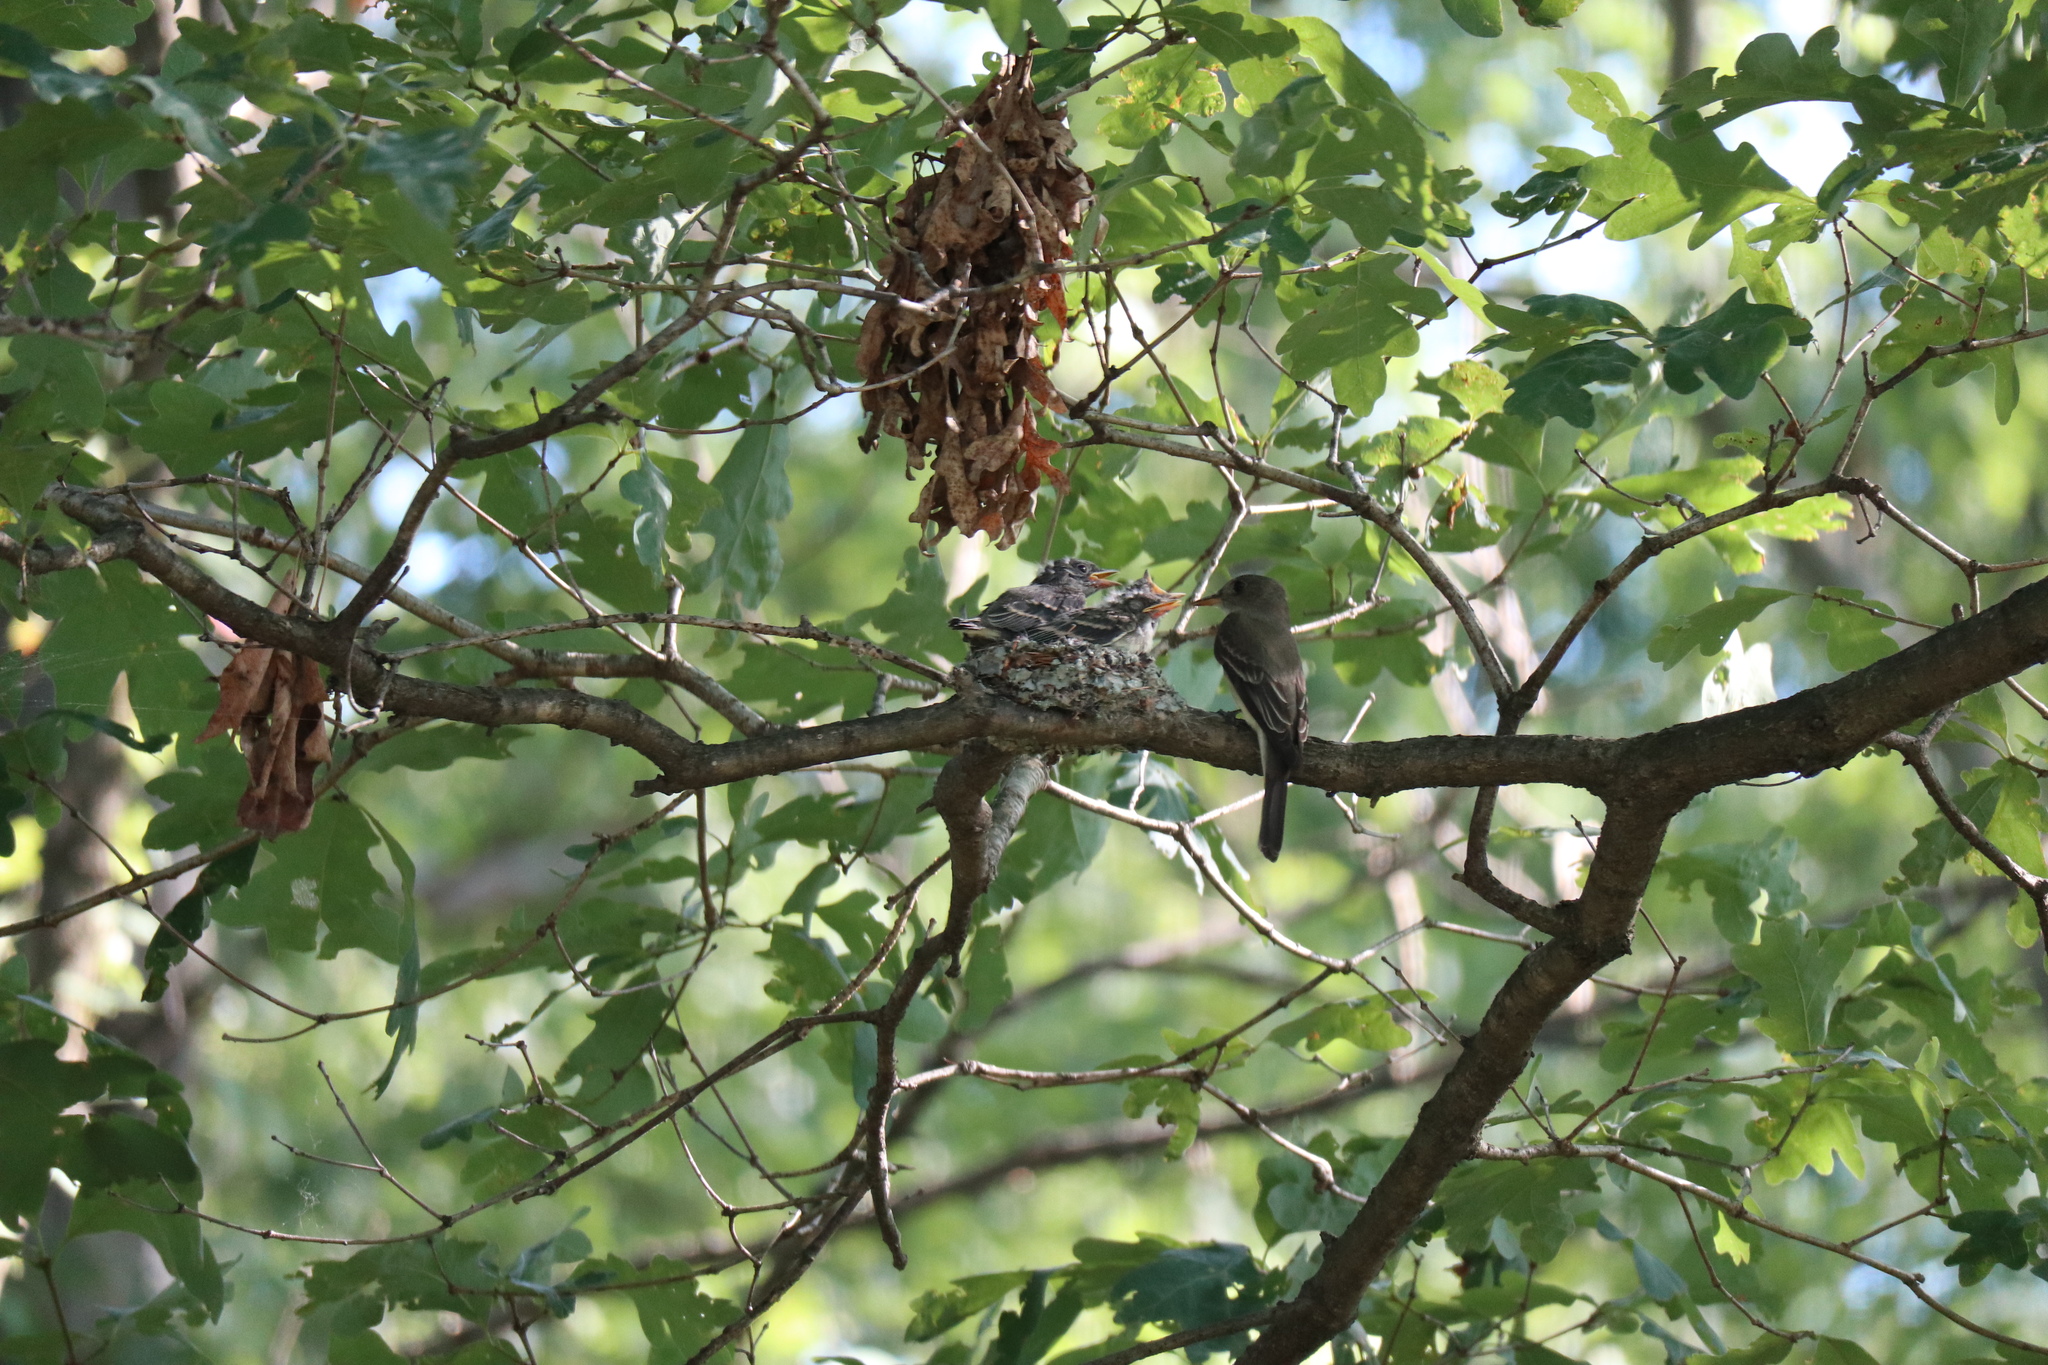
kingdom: Animalia
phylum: Chordata
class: Aves
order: Passeriformes
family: Tyrannidae
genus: Contopus
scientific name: Contopus virens
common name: Eastern wood-pewee
